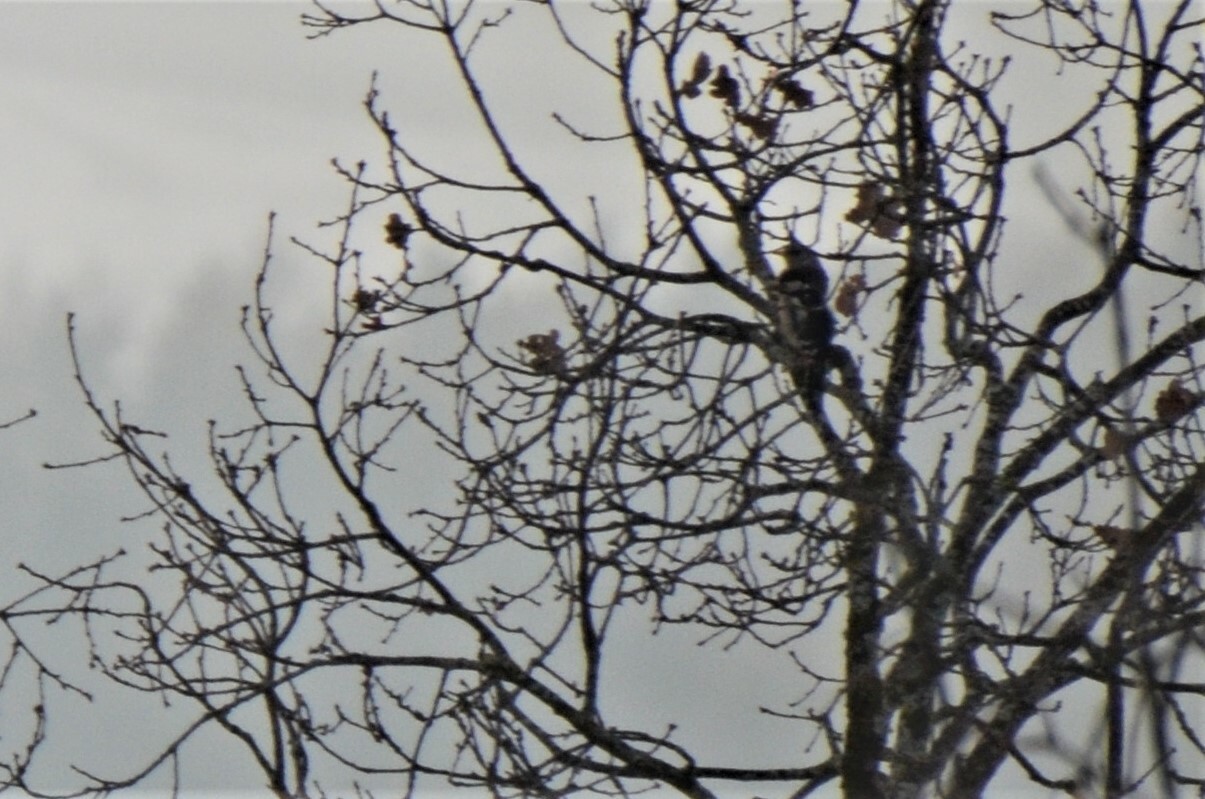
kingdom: Animalia
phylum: Chordata
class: Aves
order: Piciformes
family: Picidae
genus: Dendrocopos
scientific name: Dendrocopos major
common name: Great spotted woodpecker
